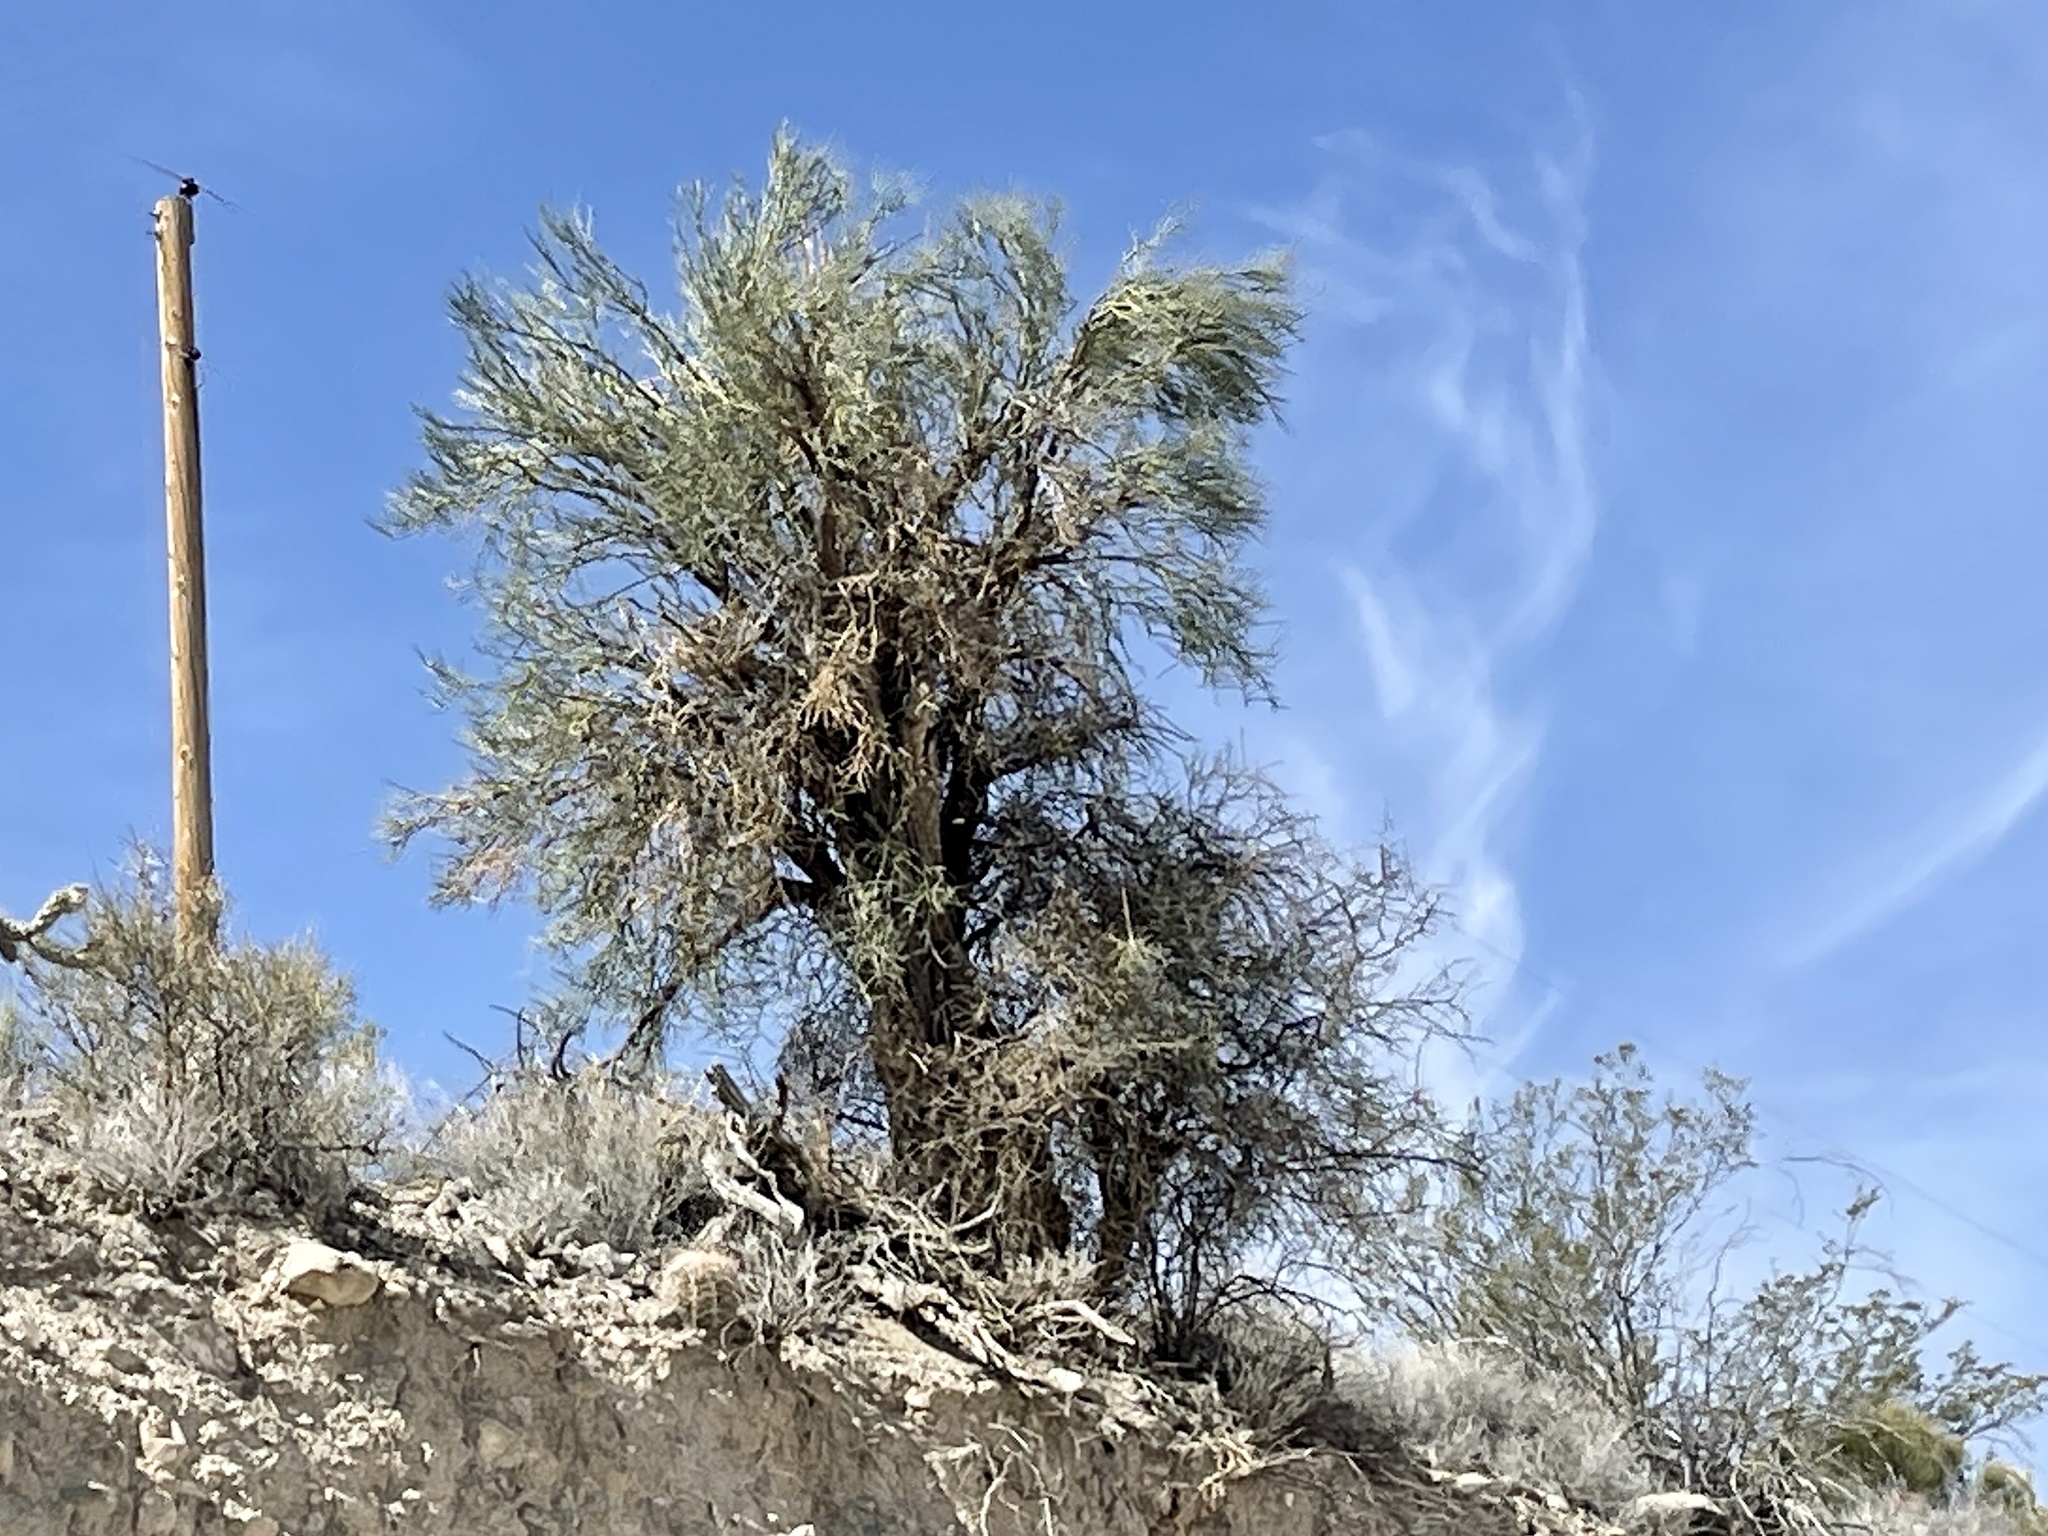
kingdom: Plantae
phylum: Tracheophyta
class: Magnoliopsida
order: Celastrales
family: Celastraceae
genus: Canotia
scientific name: Canotia holacantha
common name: Crucifixion thorns
